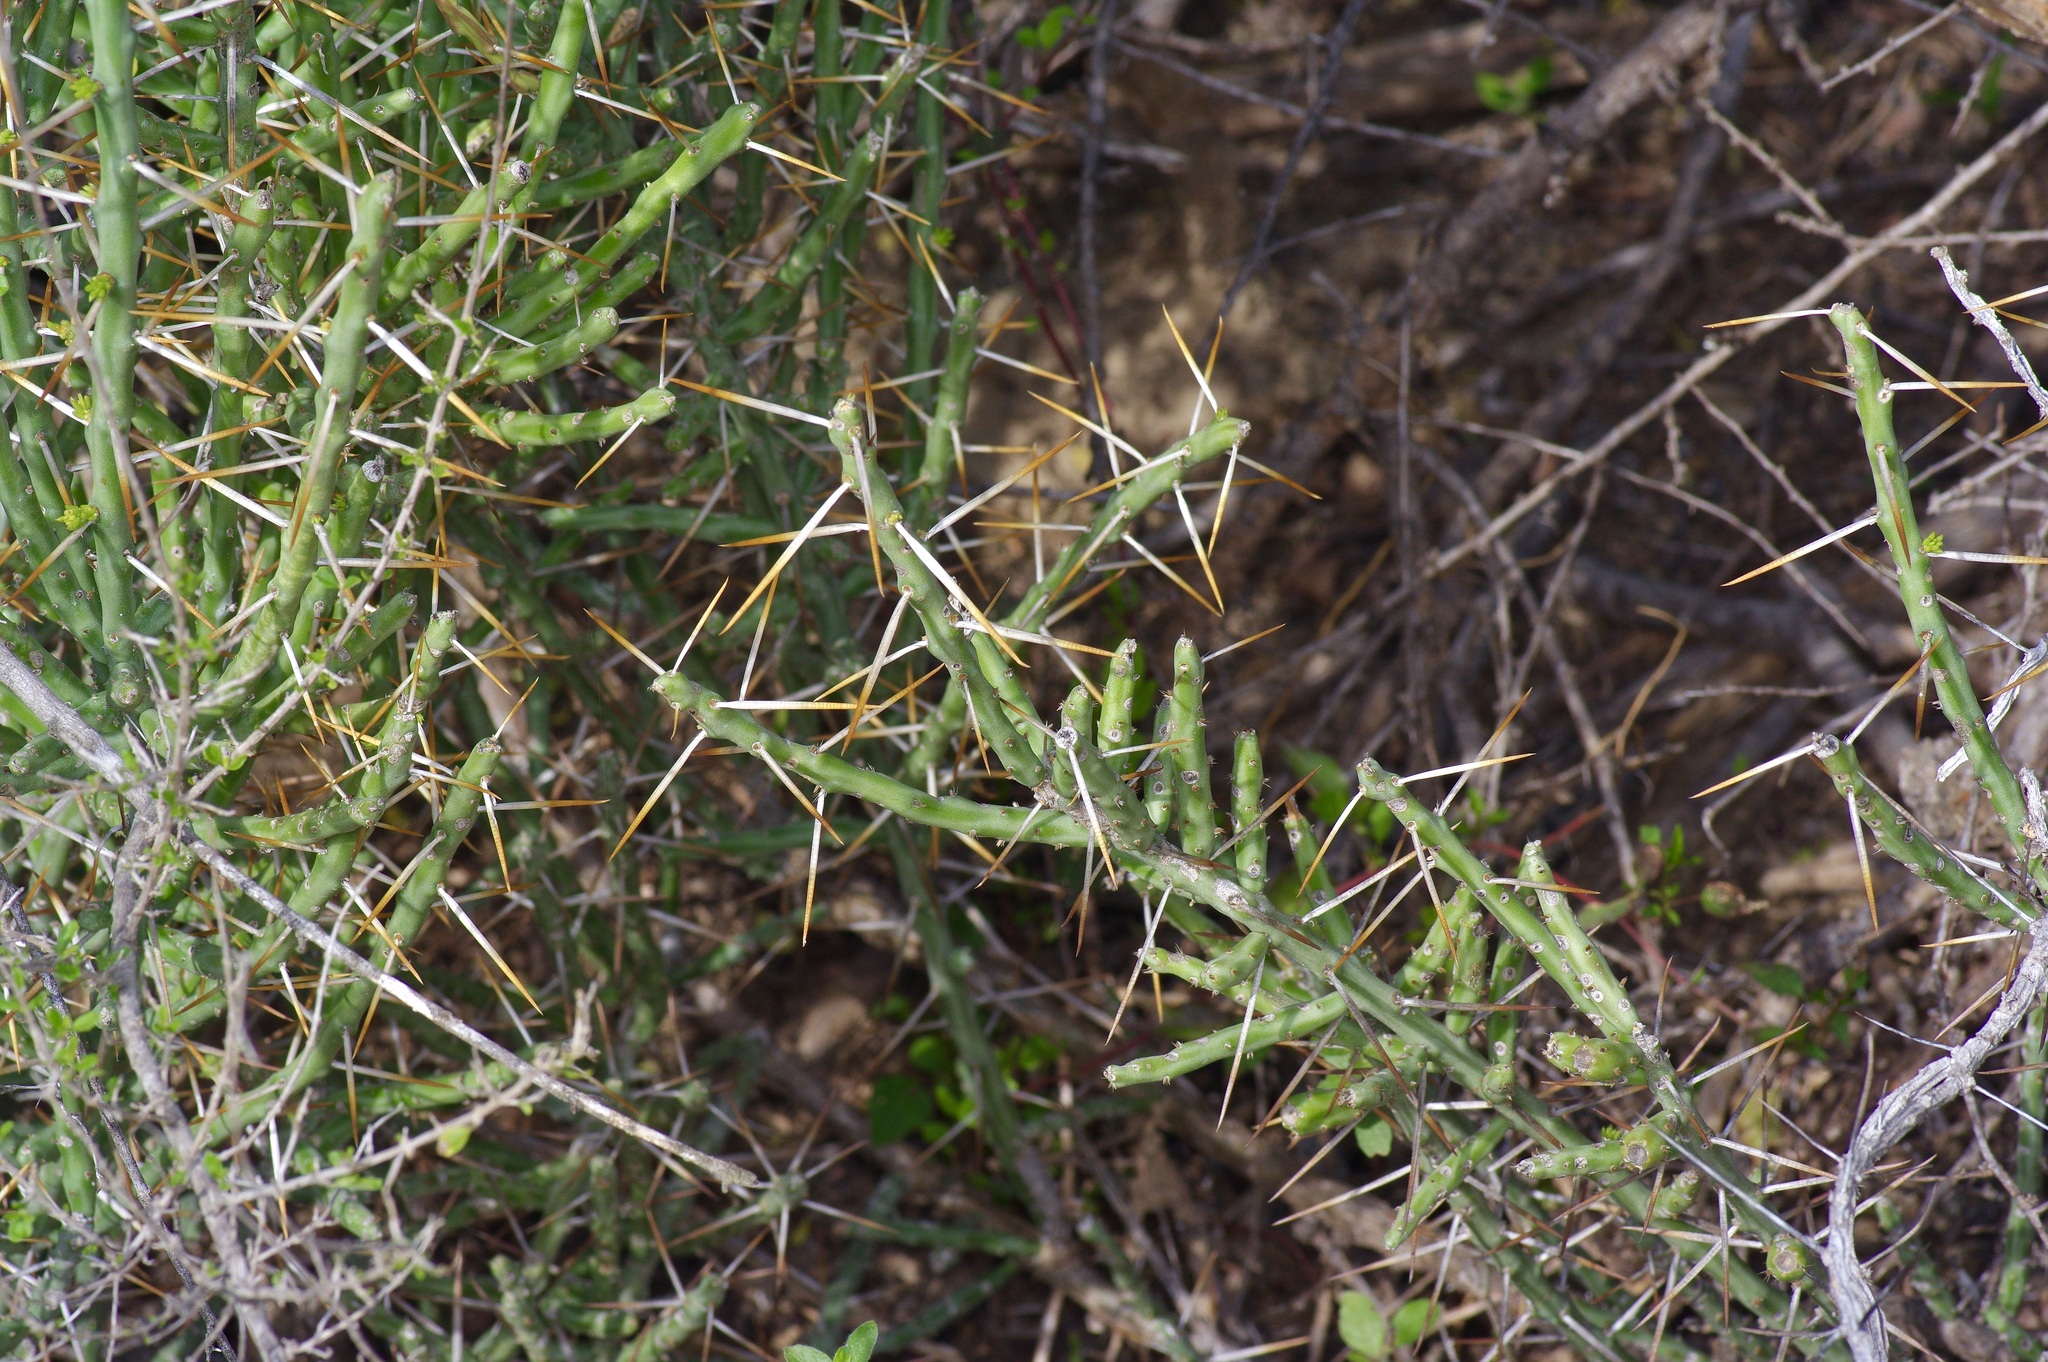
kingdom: Plantae
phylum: Tracheophyta
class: Magnoliopsida
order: Caryophyllales
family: Cactaceae
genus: Cylindropuntia
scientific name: Cylindropuntia leptocaulis
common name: Christmas cactus
